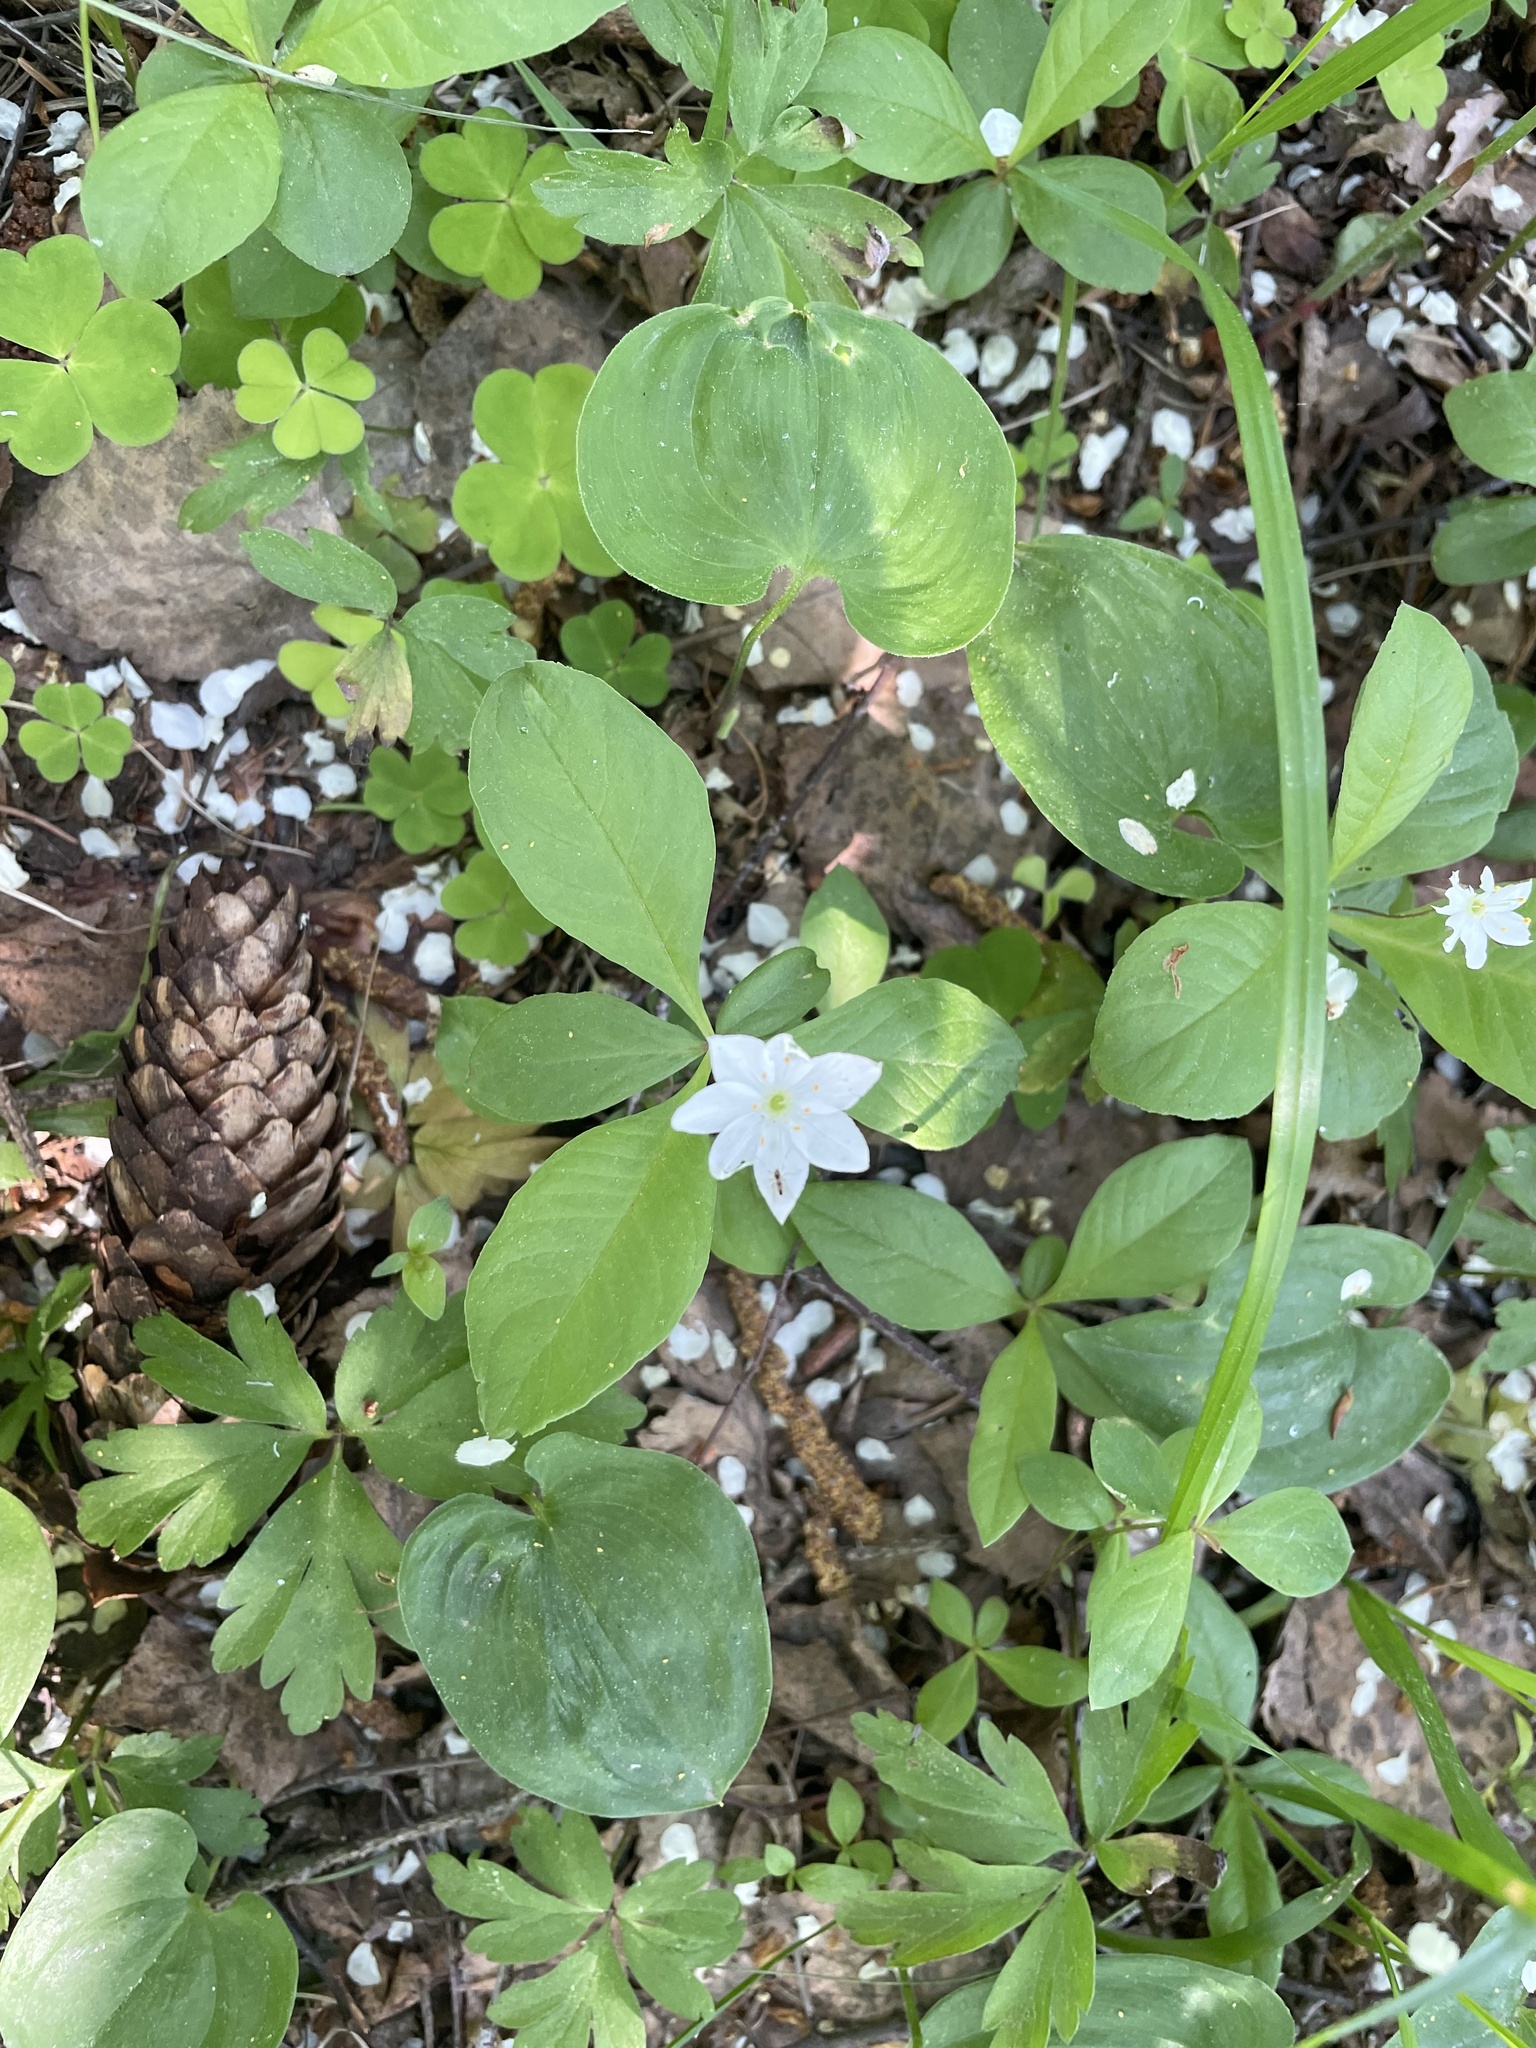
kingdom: Plantae
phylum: Tracheophyta
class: Magnoliopsida
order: Ericales
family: Primulaceae
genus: Lysimachia
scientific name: Lysimachia europaea
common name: Arctic starflower
